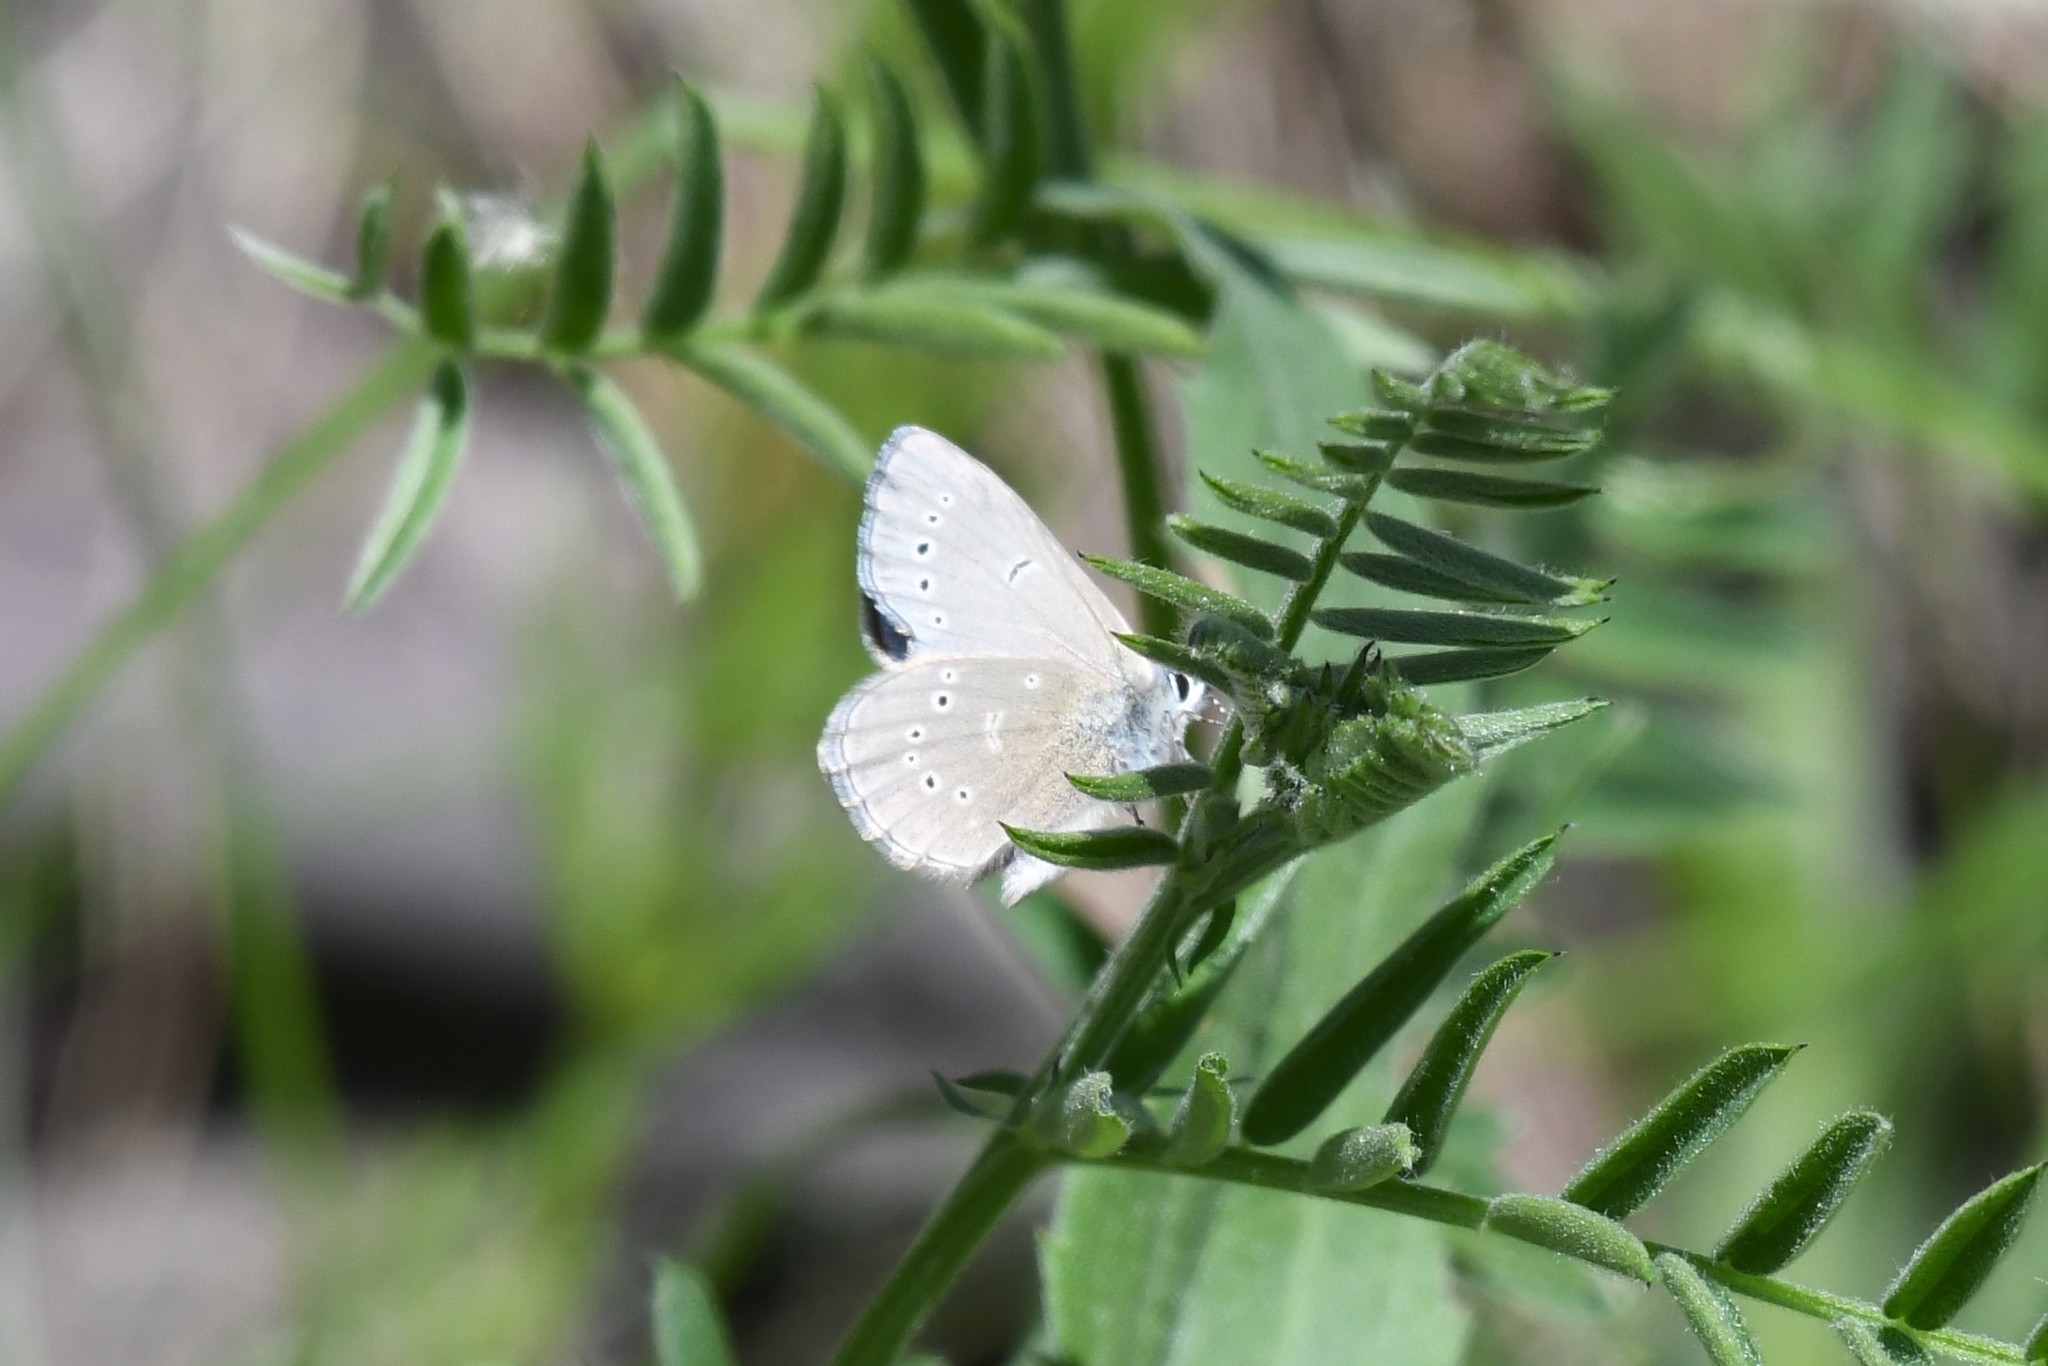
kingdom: Animalia
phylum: Arthropoda
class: Insecta
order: Lepidoptera
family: Lycaenidae
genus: Glaucopsyche
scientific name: Glaucopsyche lygdamus
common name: Silvery blue
